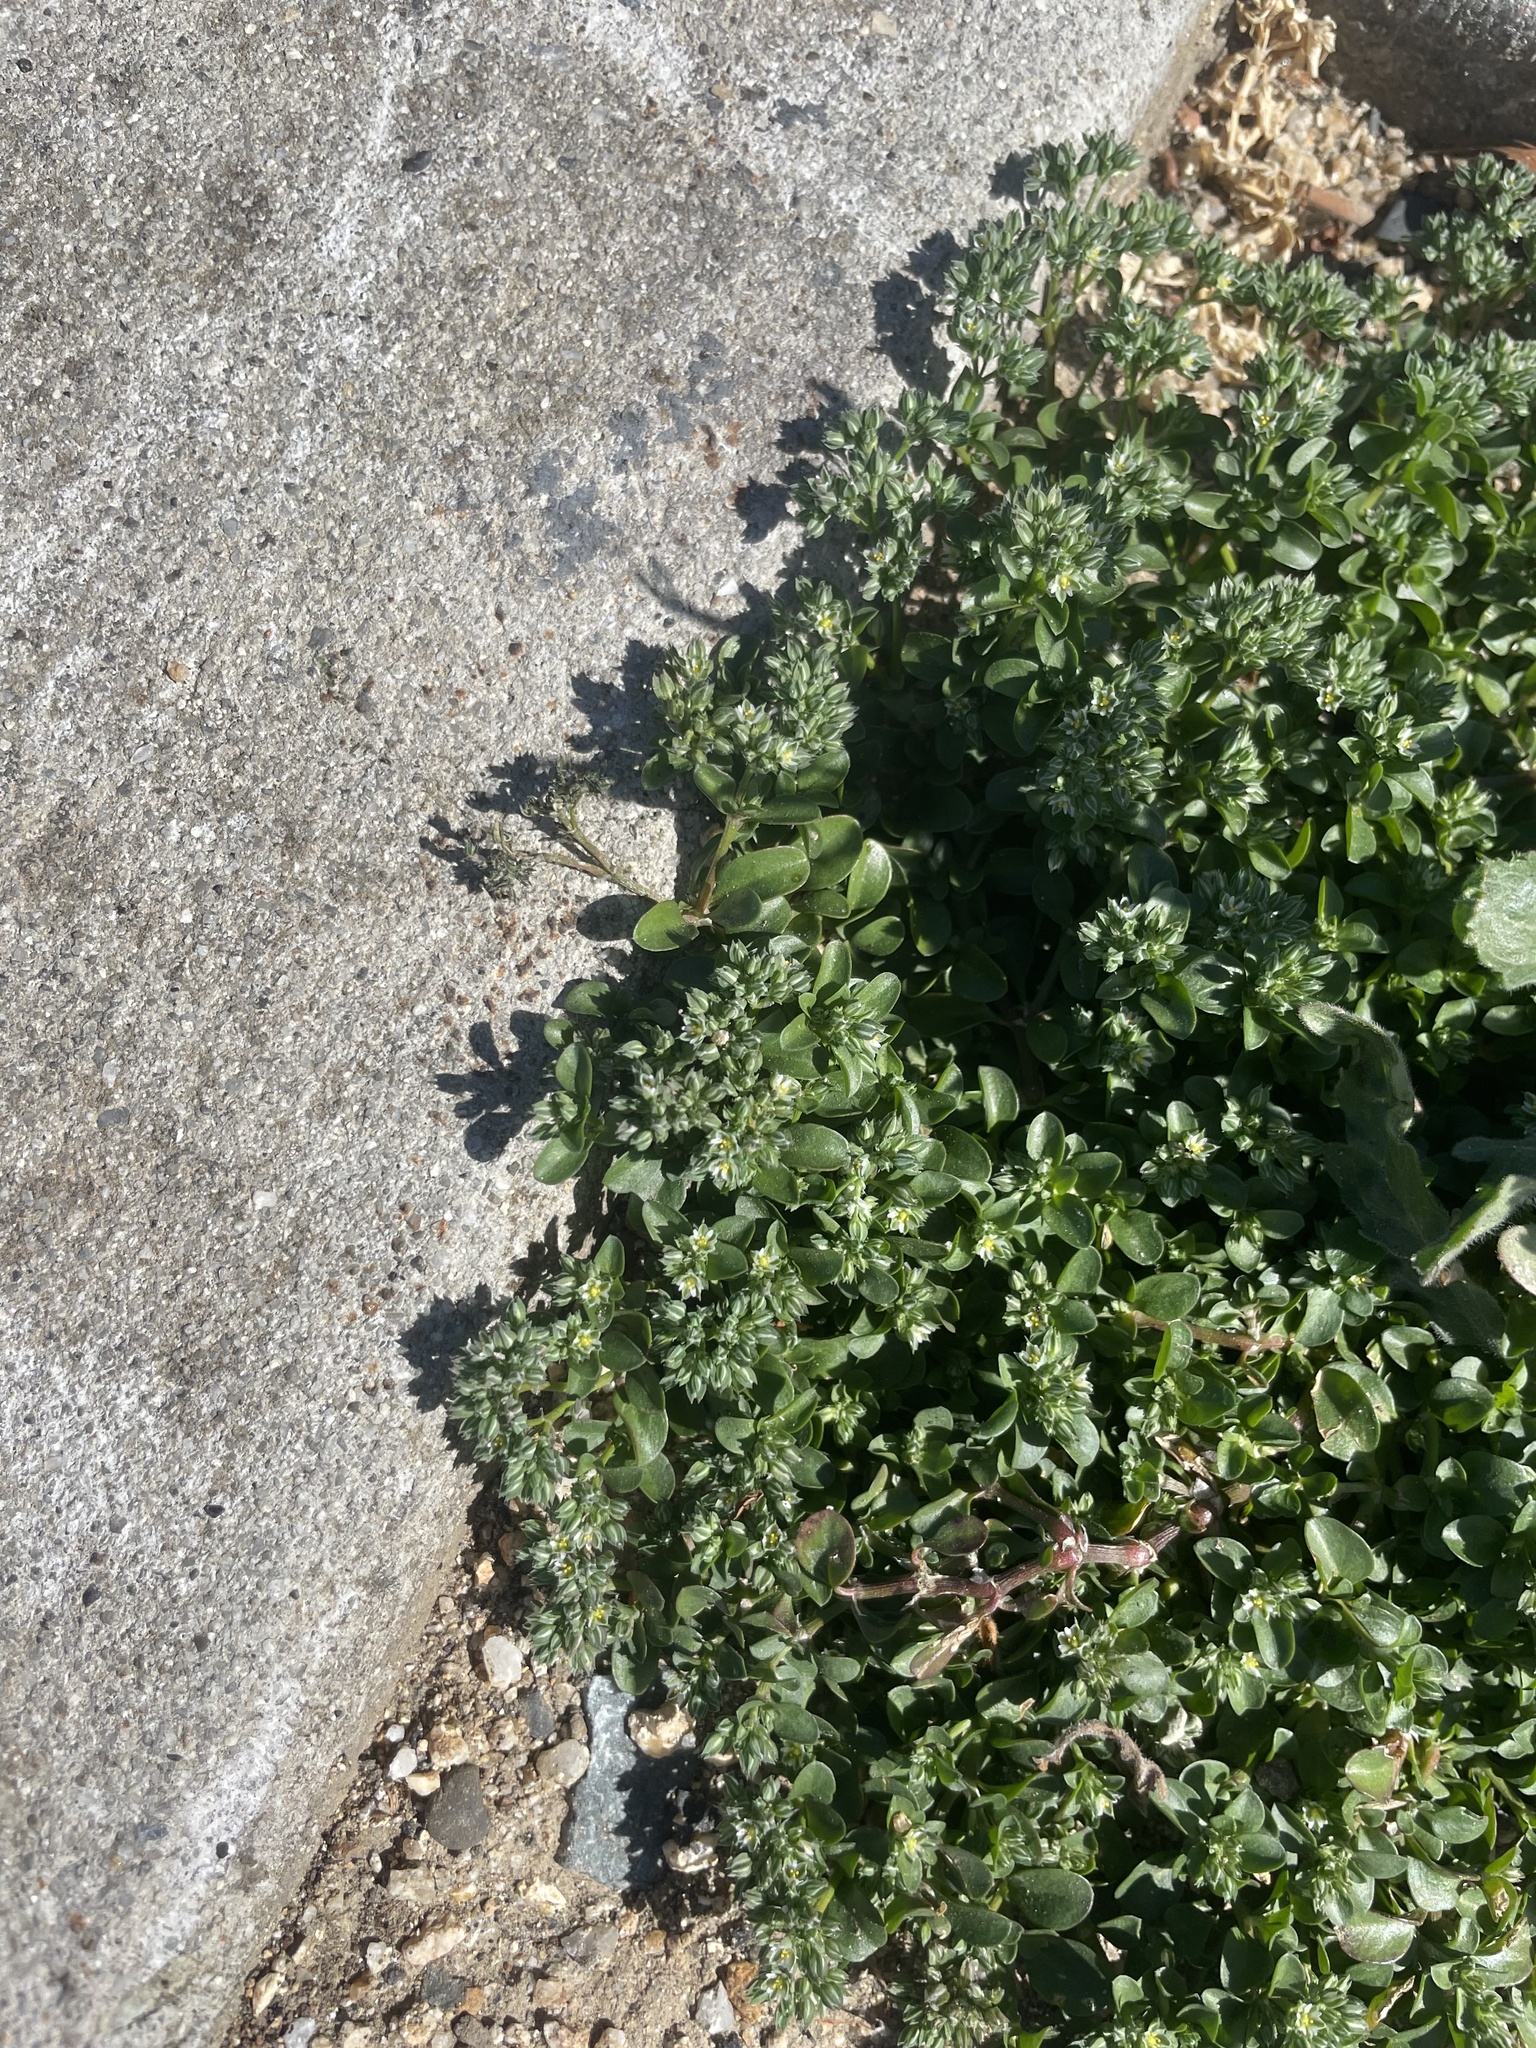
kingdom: Plantae
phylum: Tracheophyta
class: Magnoliopsida
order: Caryophyllales
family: Caryophyllaceae
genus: Polycarpon
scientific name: Polycarpon tetraphyllum
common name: Four-leaved all-seed
